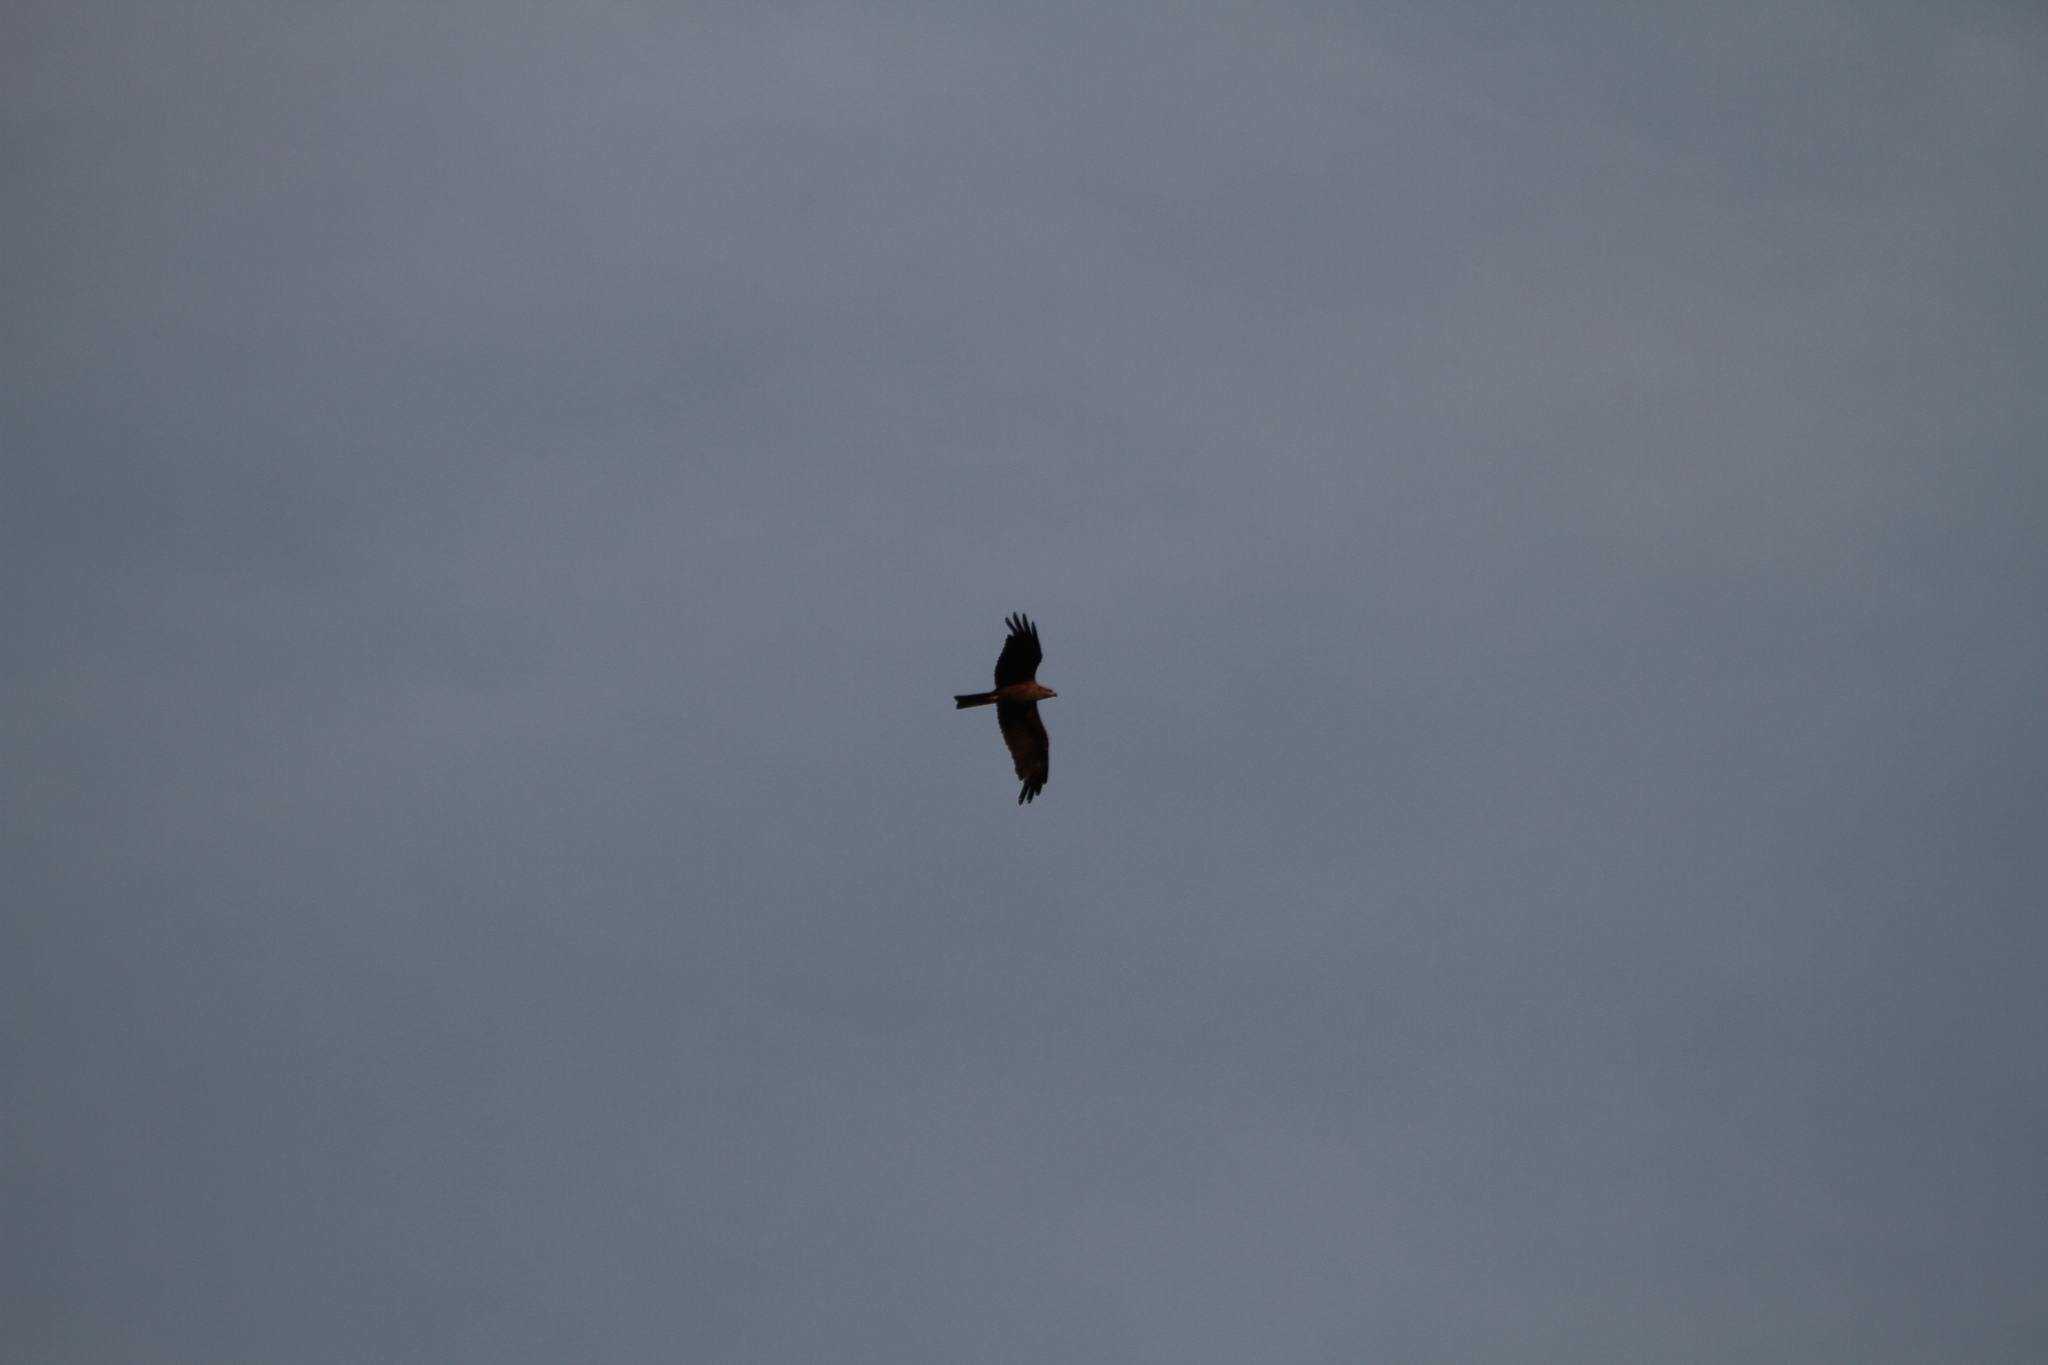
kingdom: Animalia
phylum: Chordata
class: Aves
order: Accipitriformes
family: Accipitridae
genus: Milvus
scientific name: Milvus migrans
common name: Black kite
